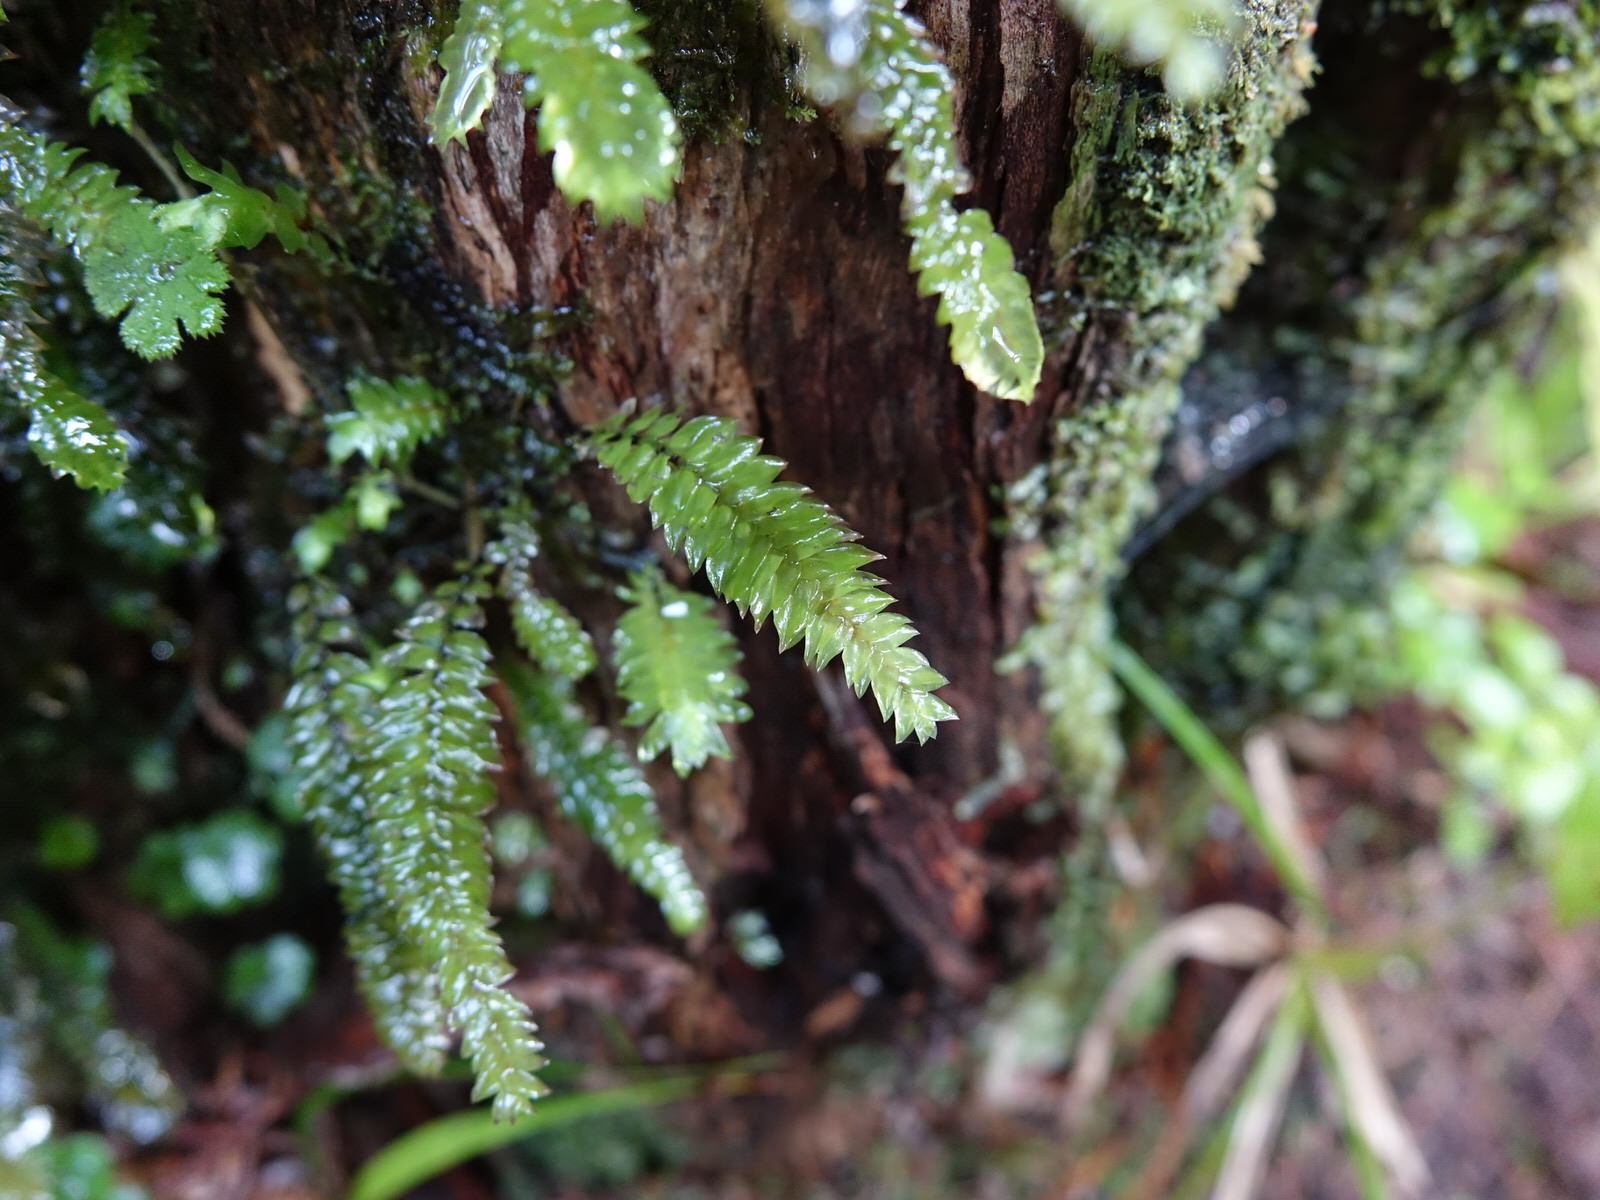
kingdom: Plantae
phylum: Bryophyta
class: Bryopsida
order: Hypopterygiales
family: Hypopterygiaceae
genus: Cyathophorum
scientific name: Cyathophorum bulbosum
